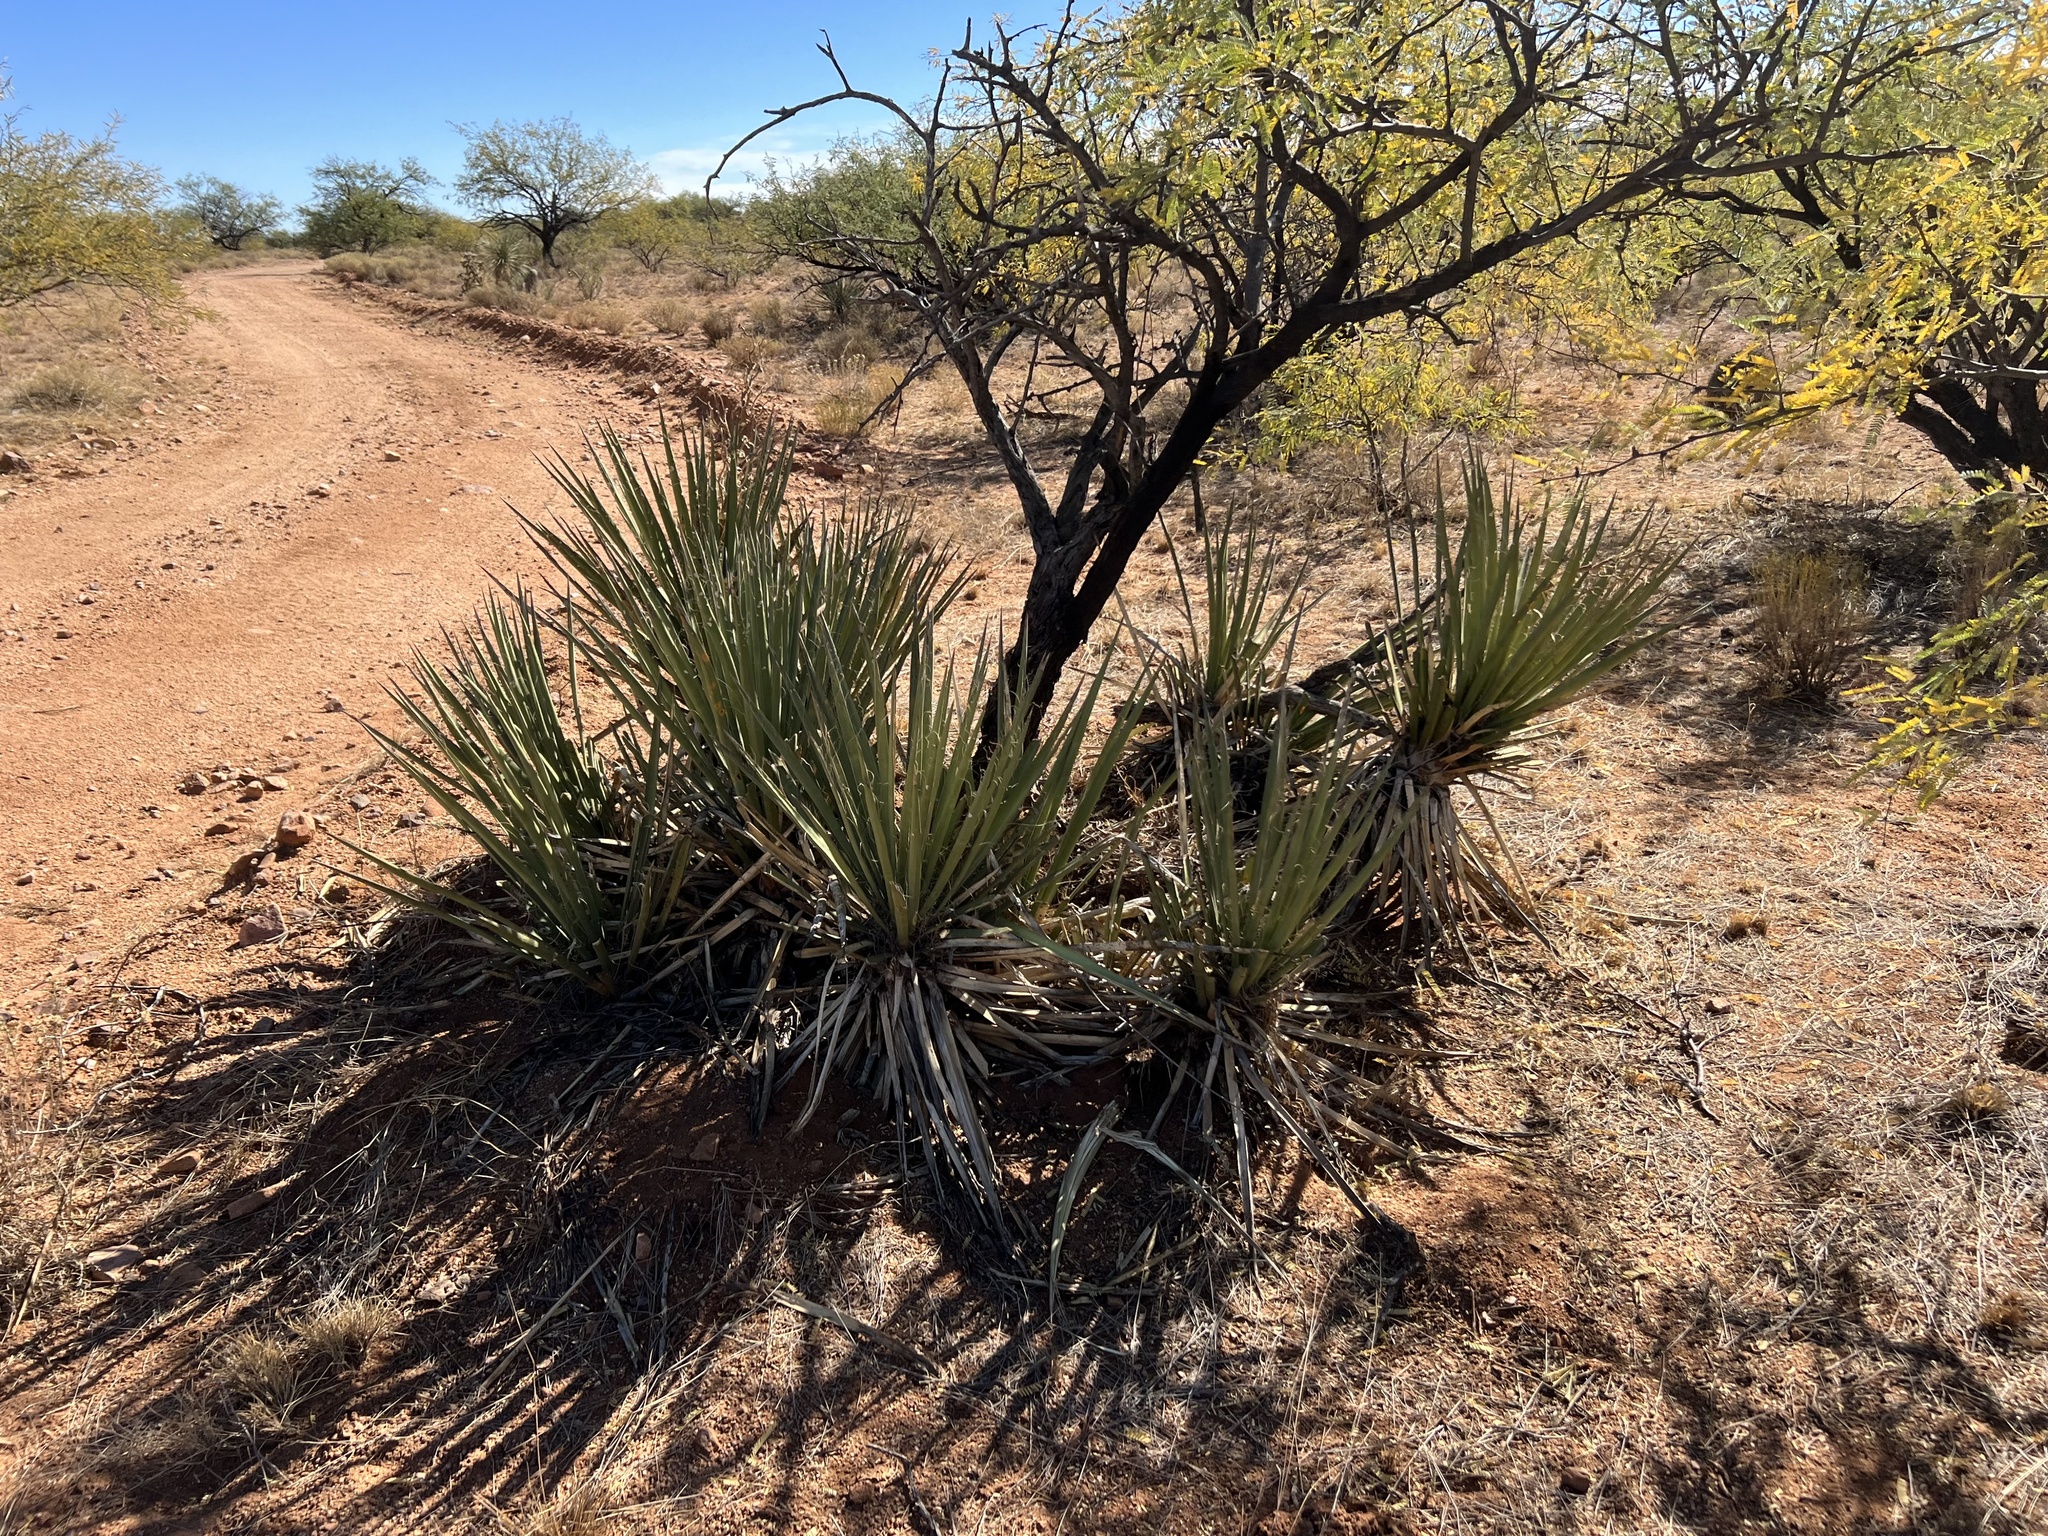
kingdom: Plantae
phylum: Tracheophyta
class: Liliopsida
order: Asparagales
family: Asparagaceae
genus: Yucca
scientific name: Yucca baccata
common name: Banana yucca
